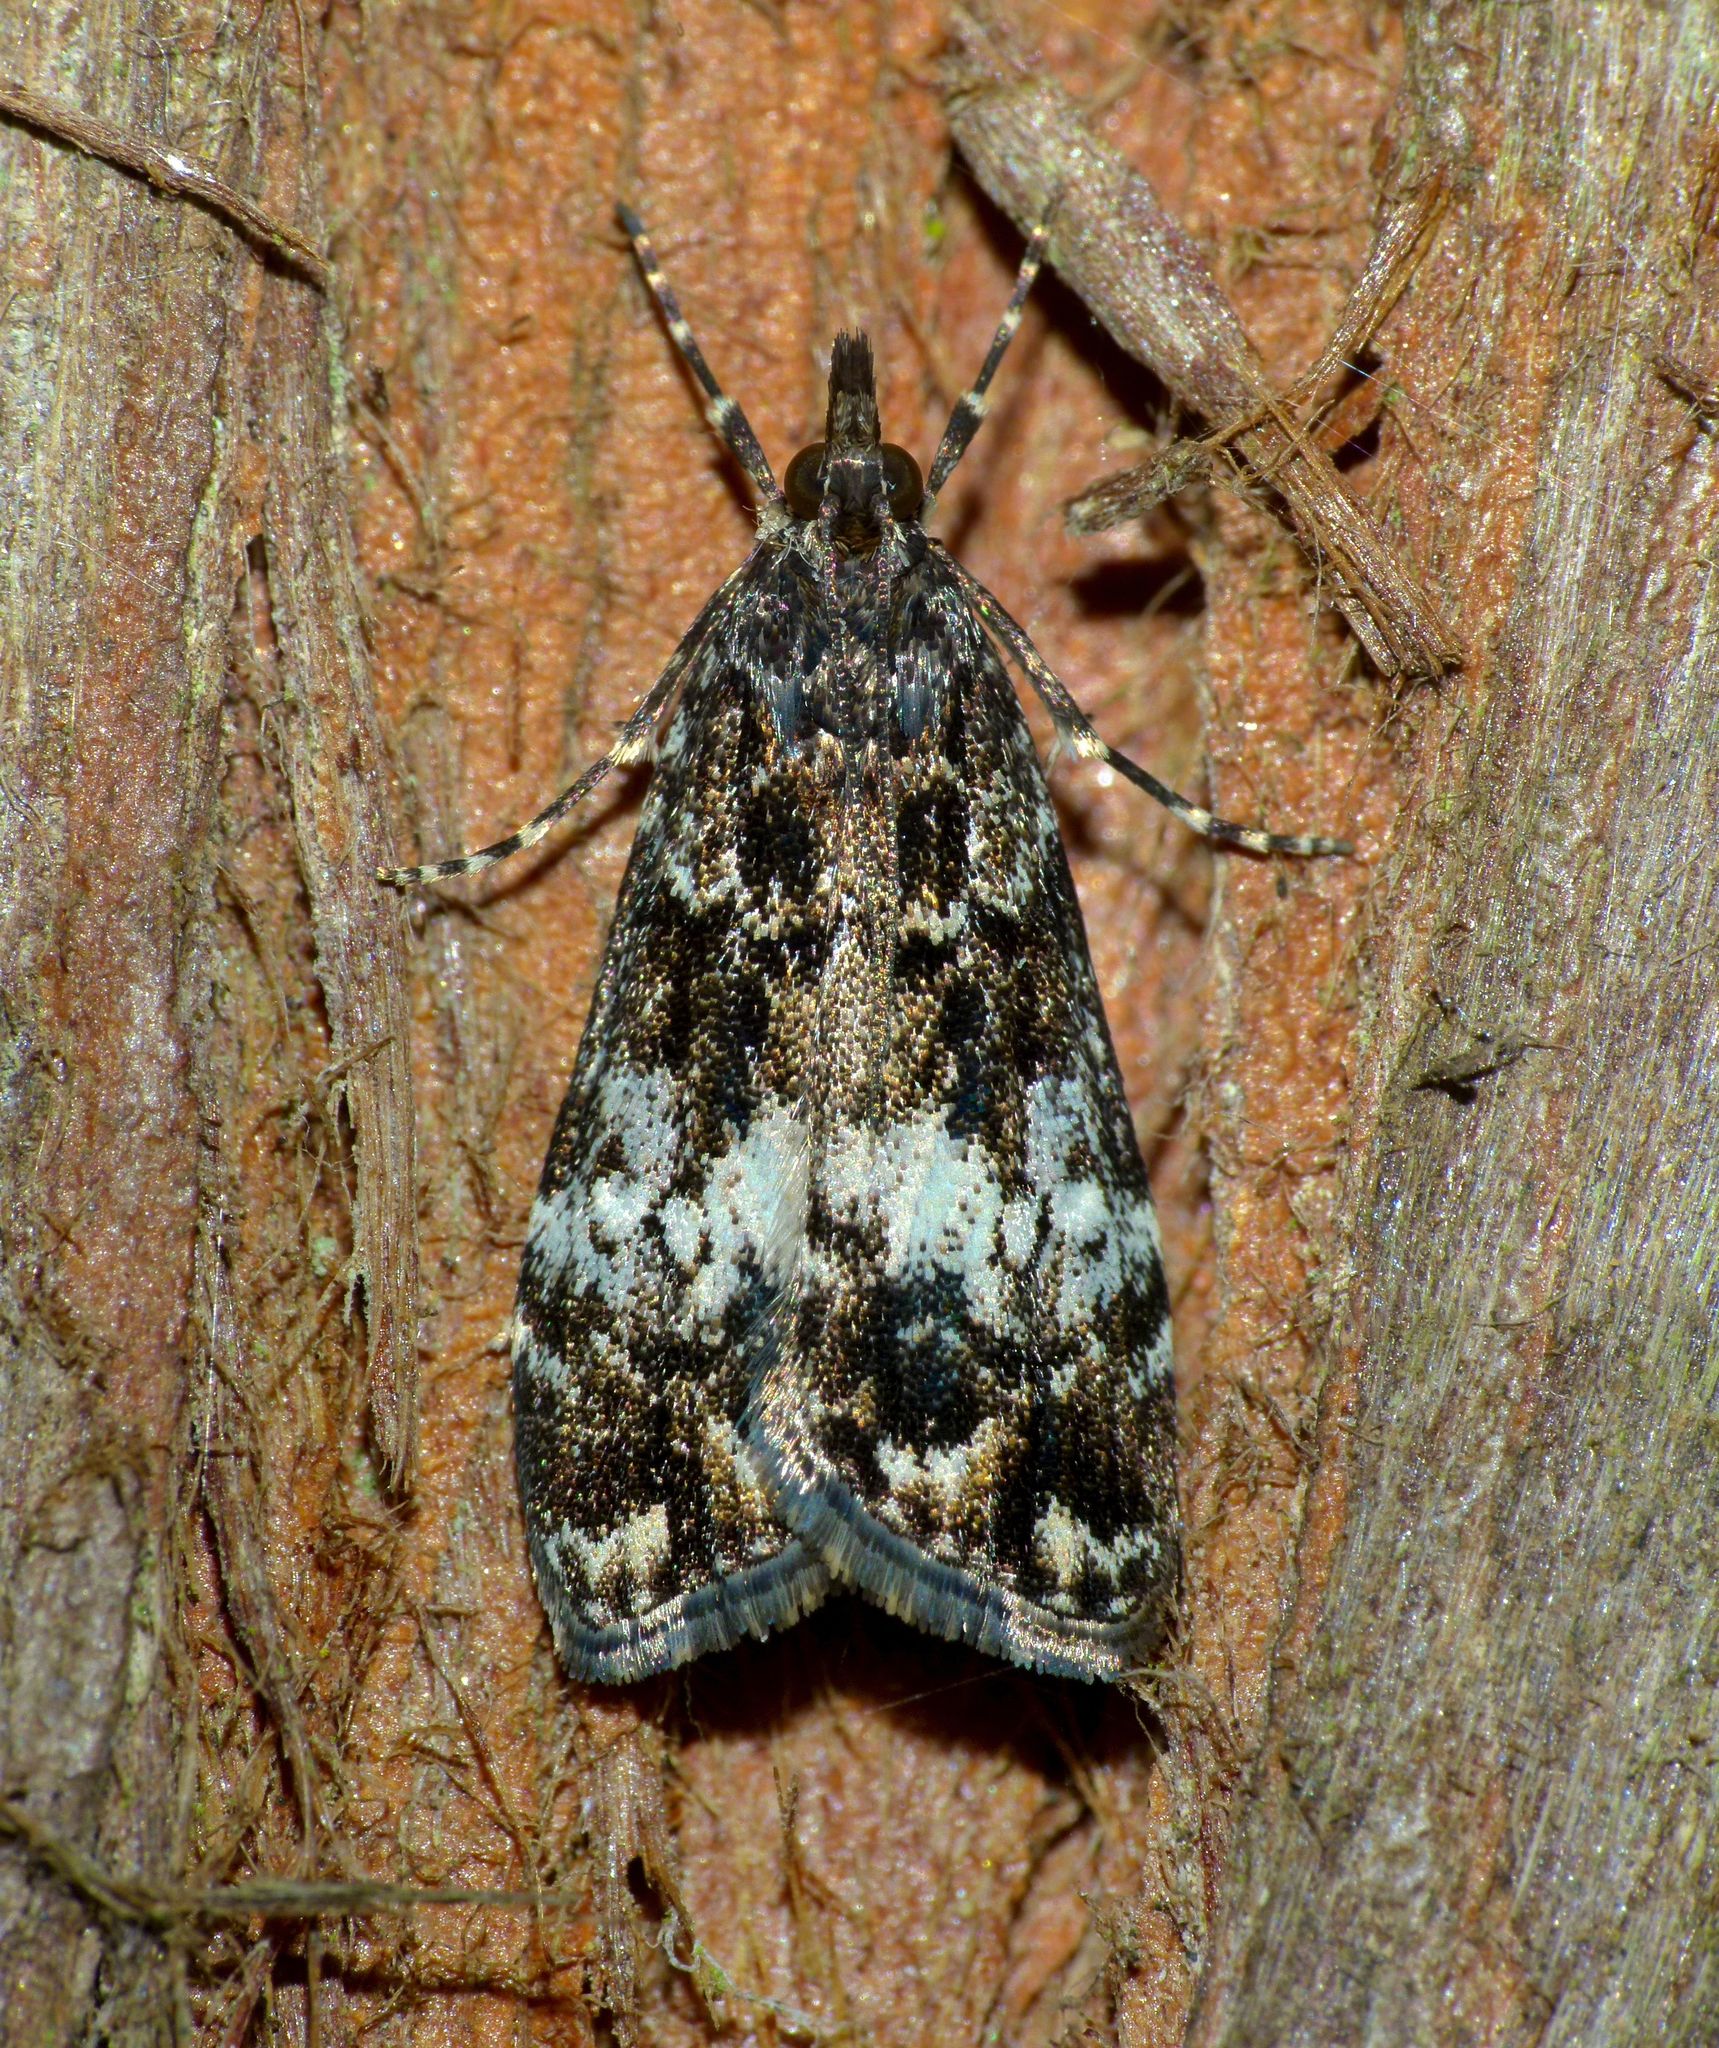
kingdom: Animalia
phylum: Arthropoda
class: Insecta
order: Lepidoptera
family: Crambidae
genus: Eudonia
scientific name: Eudonia dinodes
